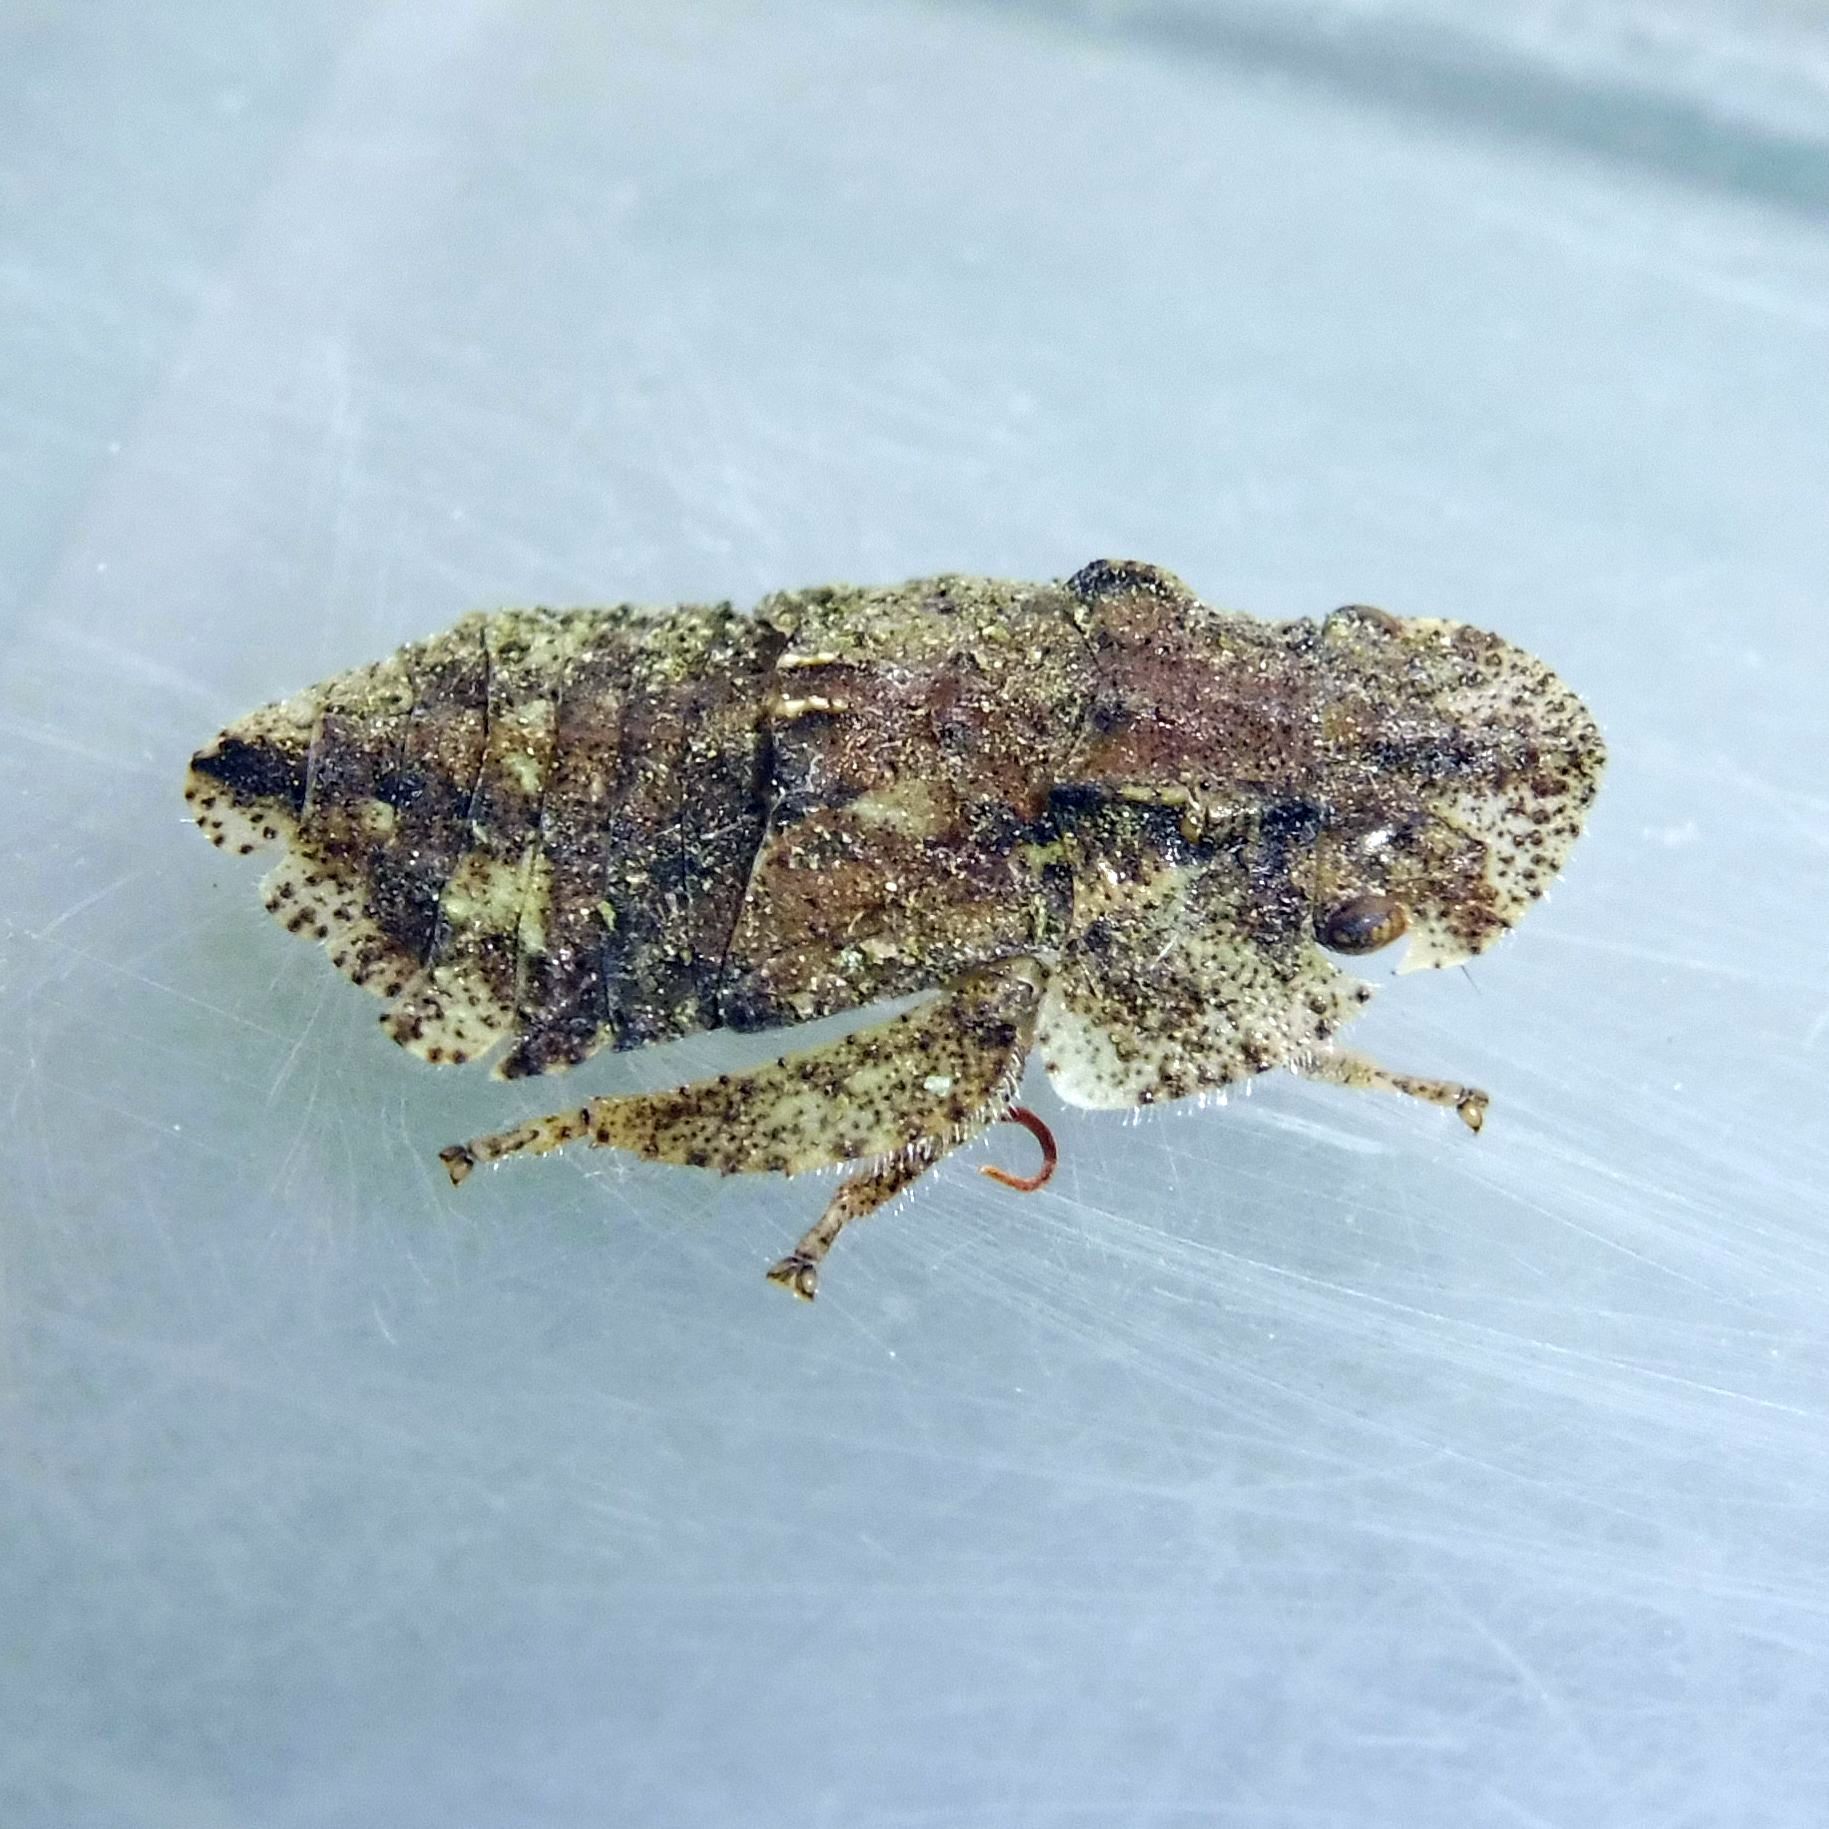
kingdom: Animalia
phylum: Arthropoda
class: Insecta
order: Hemiptera
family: Cicadellidae
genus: Ledra
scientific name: Ledra aurita
